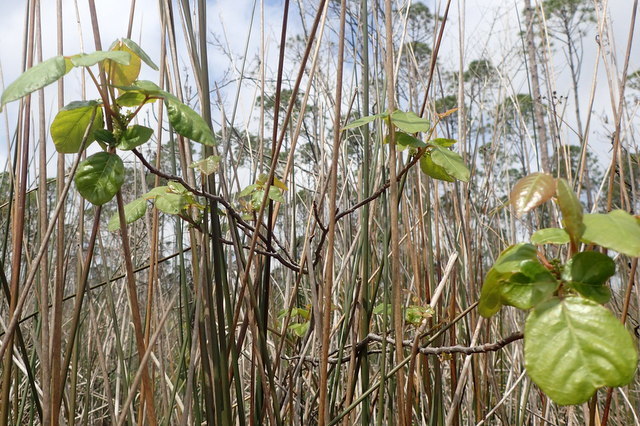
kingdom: Plantae
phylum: Tracheophyta
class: Magnoliopsida
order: Sapindales
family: Anacardiaceae
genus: Toxicodendron
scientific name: Toxicodendron radicans
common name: Poison ivy
